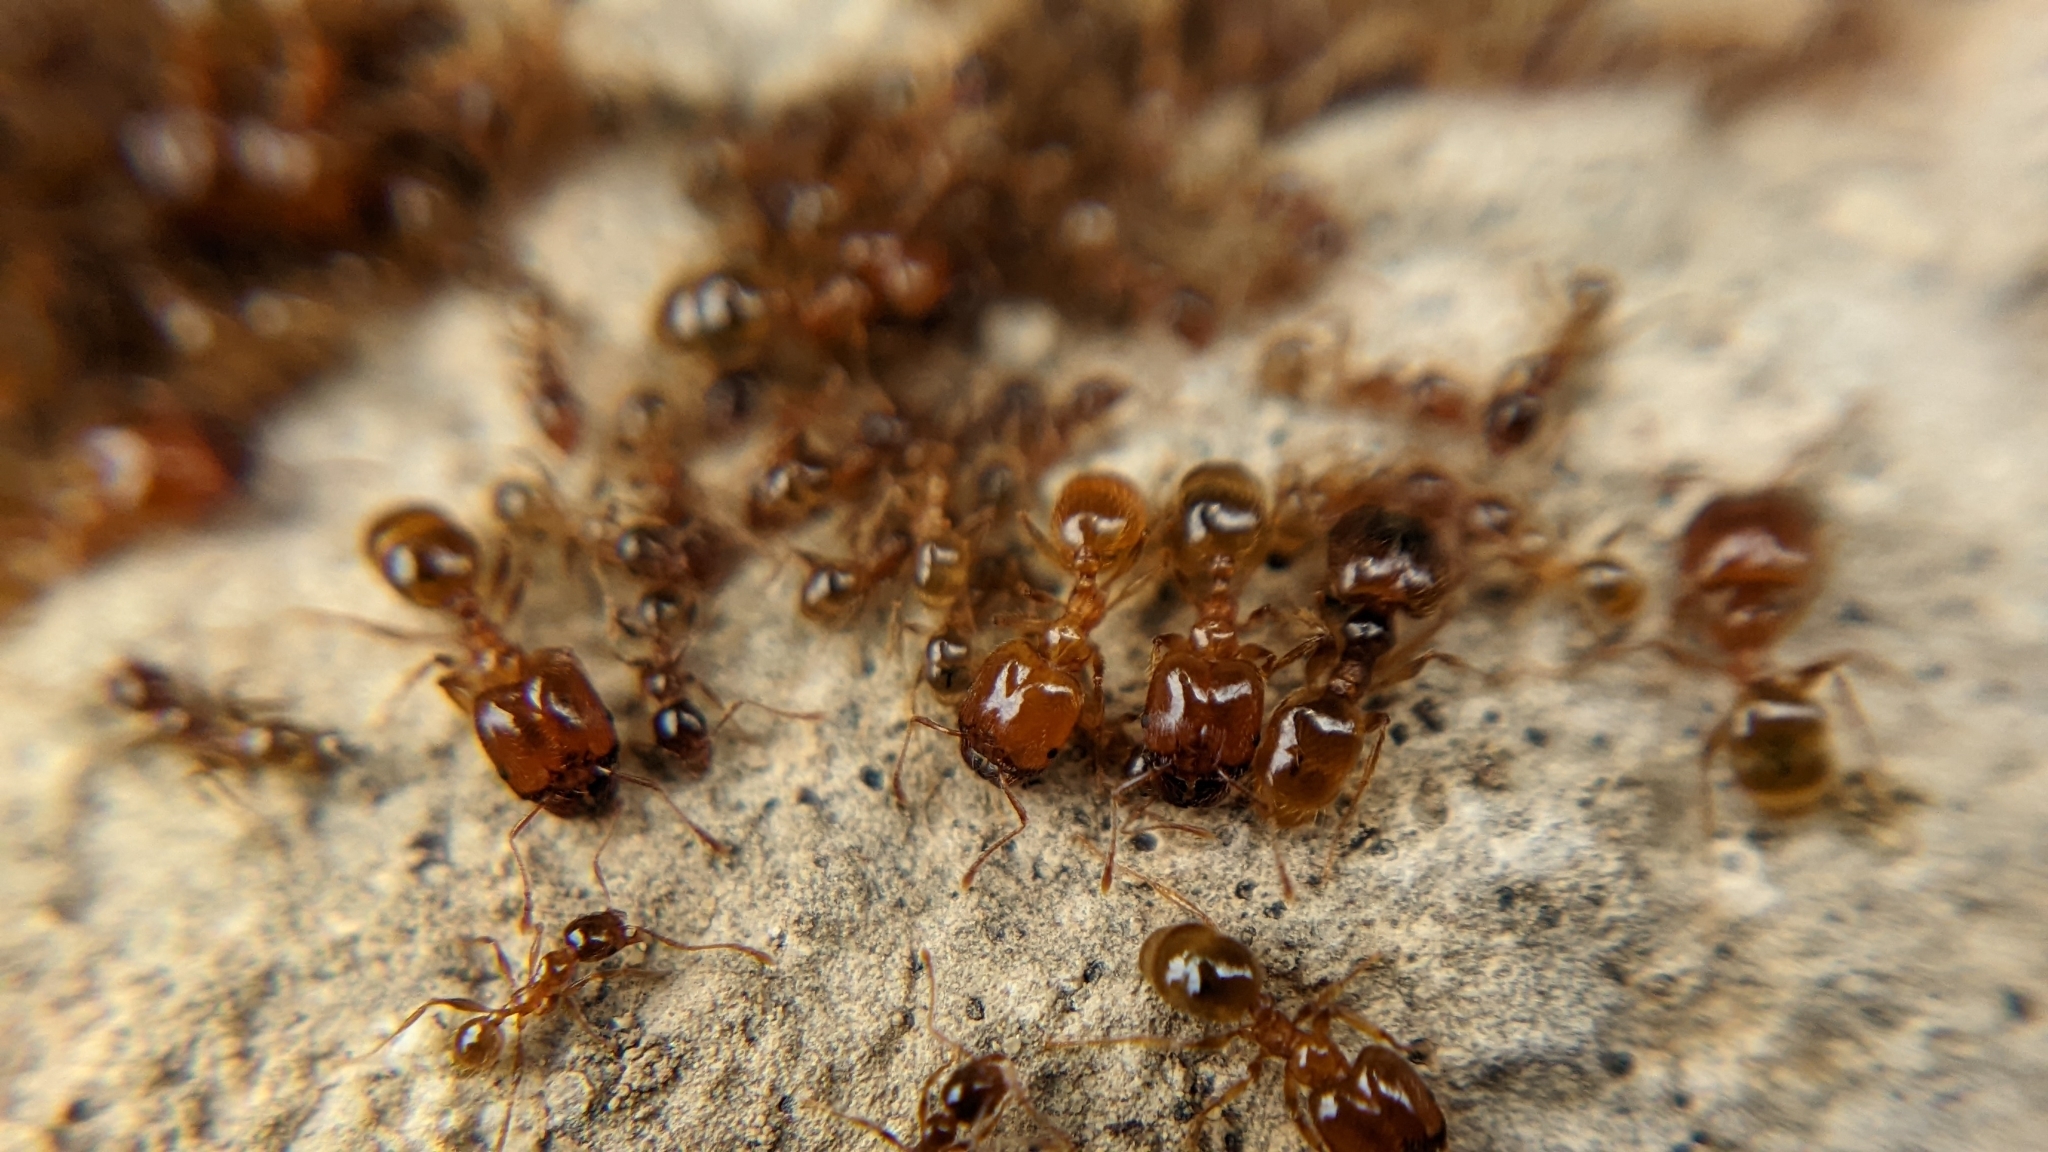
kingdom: Animalia
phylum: Arthropoda
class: Insecta
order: Hymenoptera
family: Formicidae
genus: Pheidole
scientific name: Pheidole pallidula
